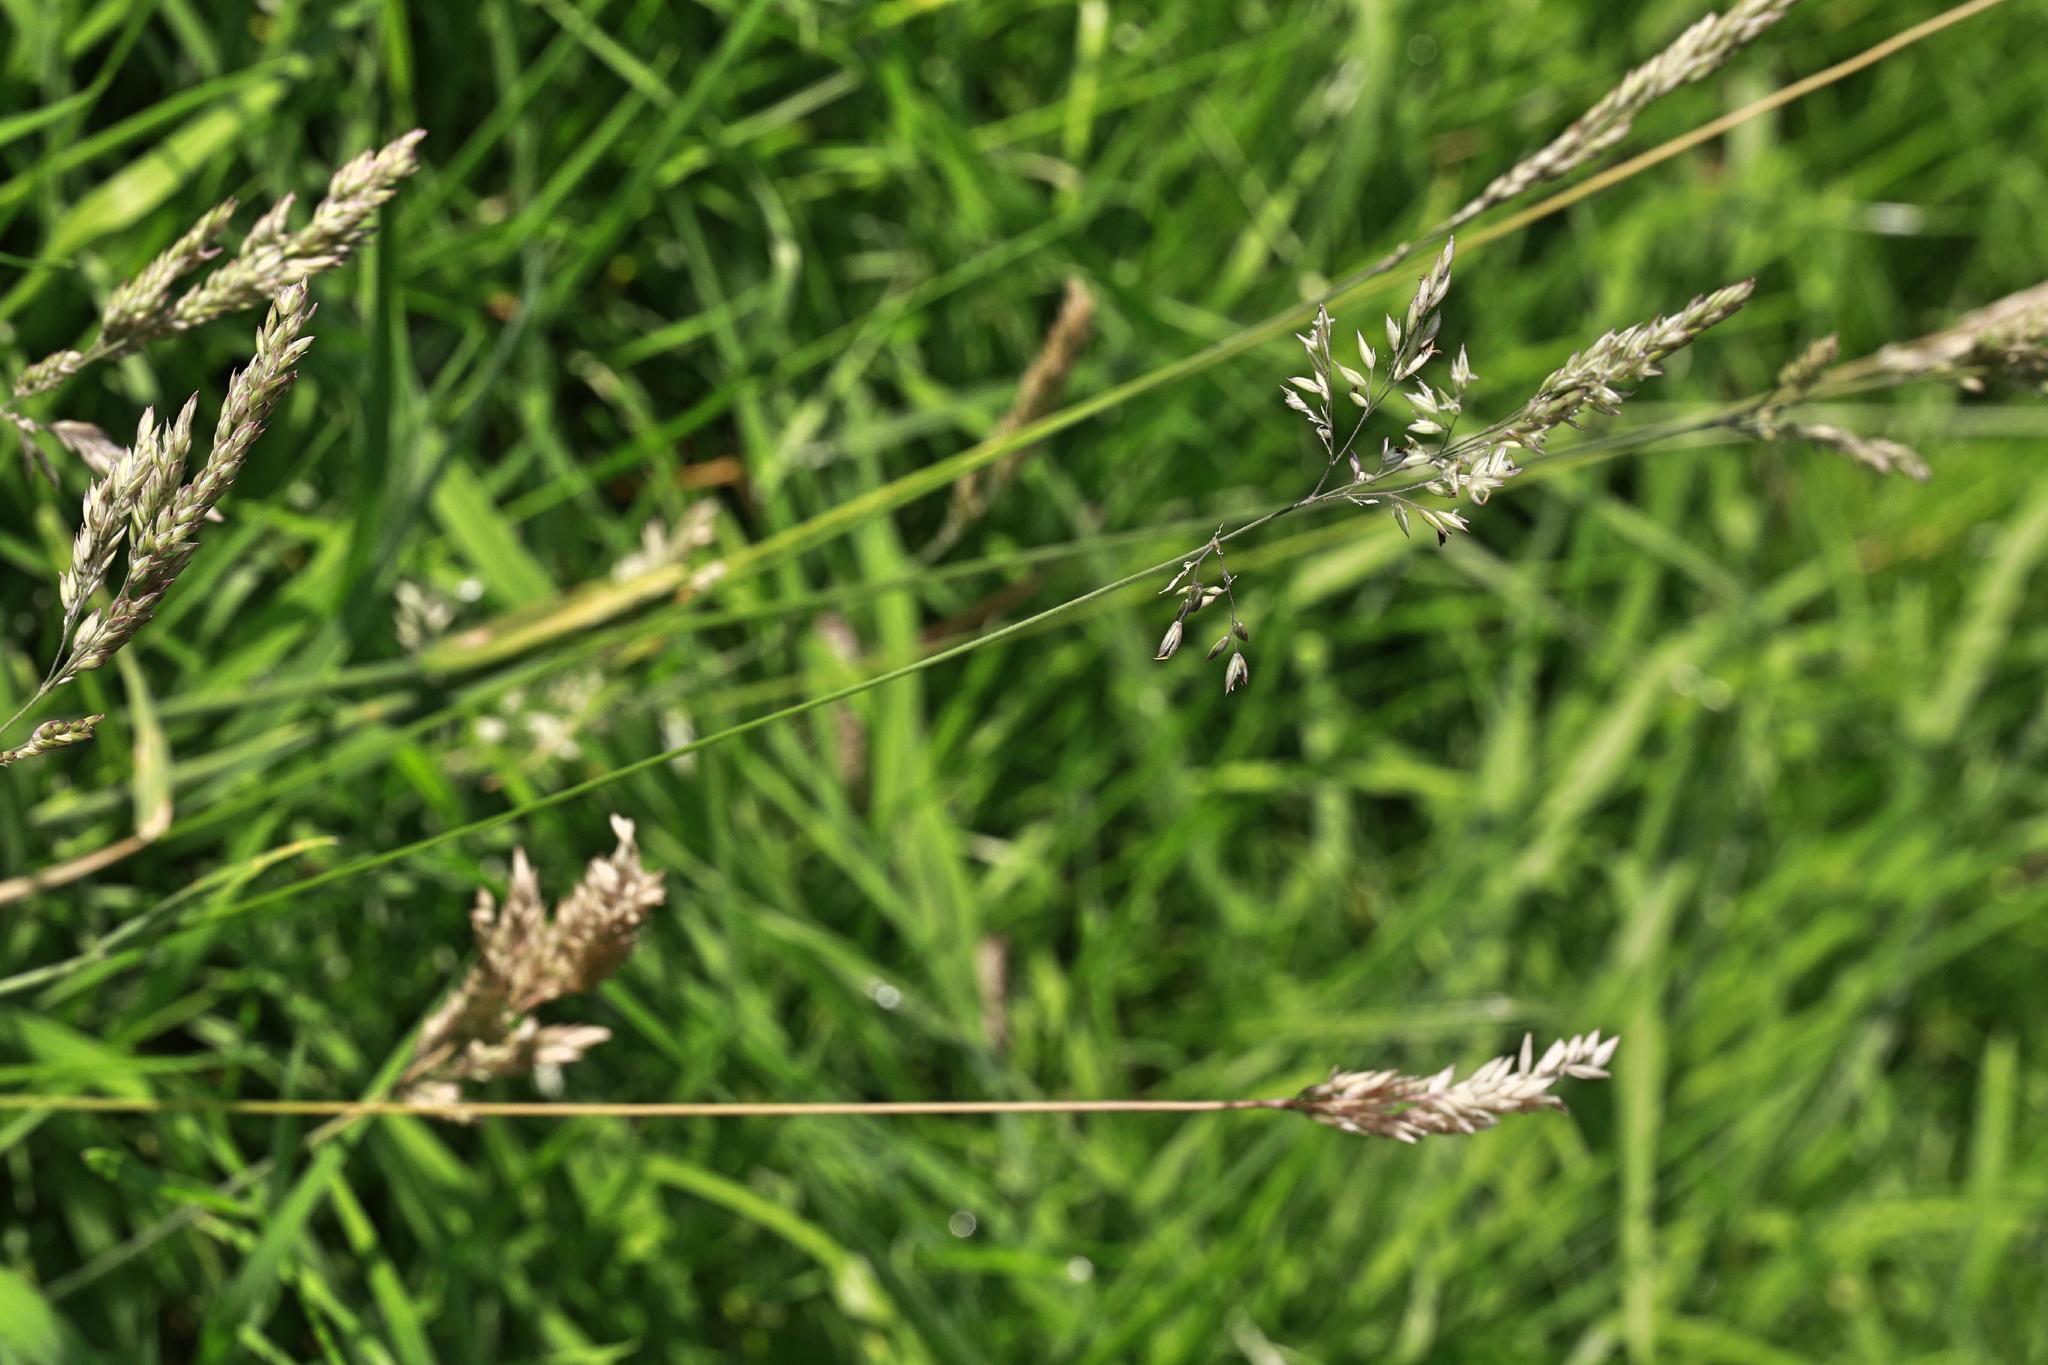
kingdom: Plantae
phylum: Tracheophyta
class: Liliopsida
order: Poales
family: Poaceae
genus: Holcus
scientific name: Holcus lanatus
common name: Yorkshire-fog
